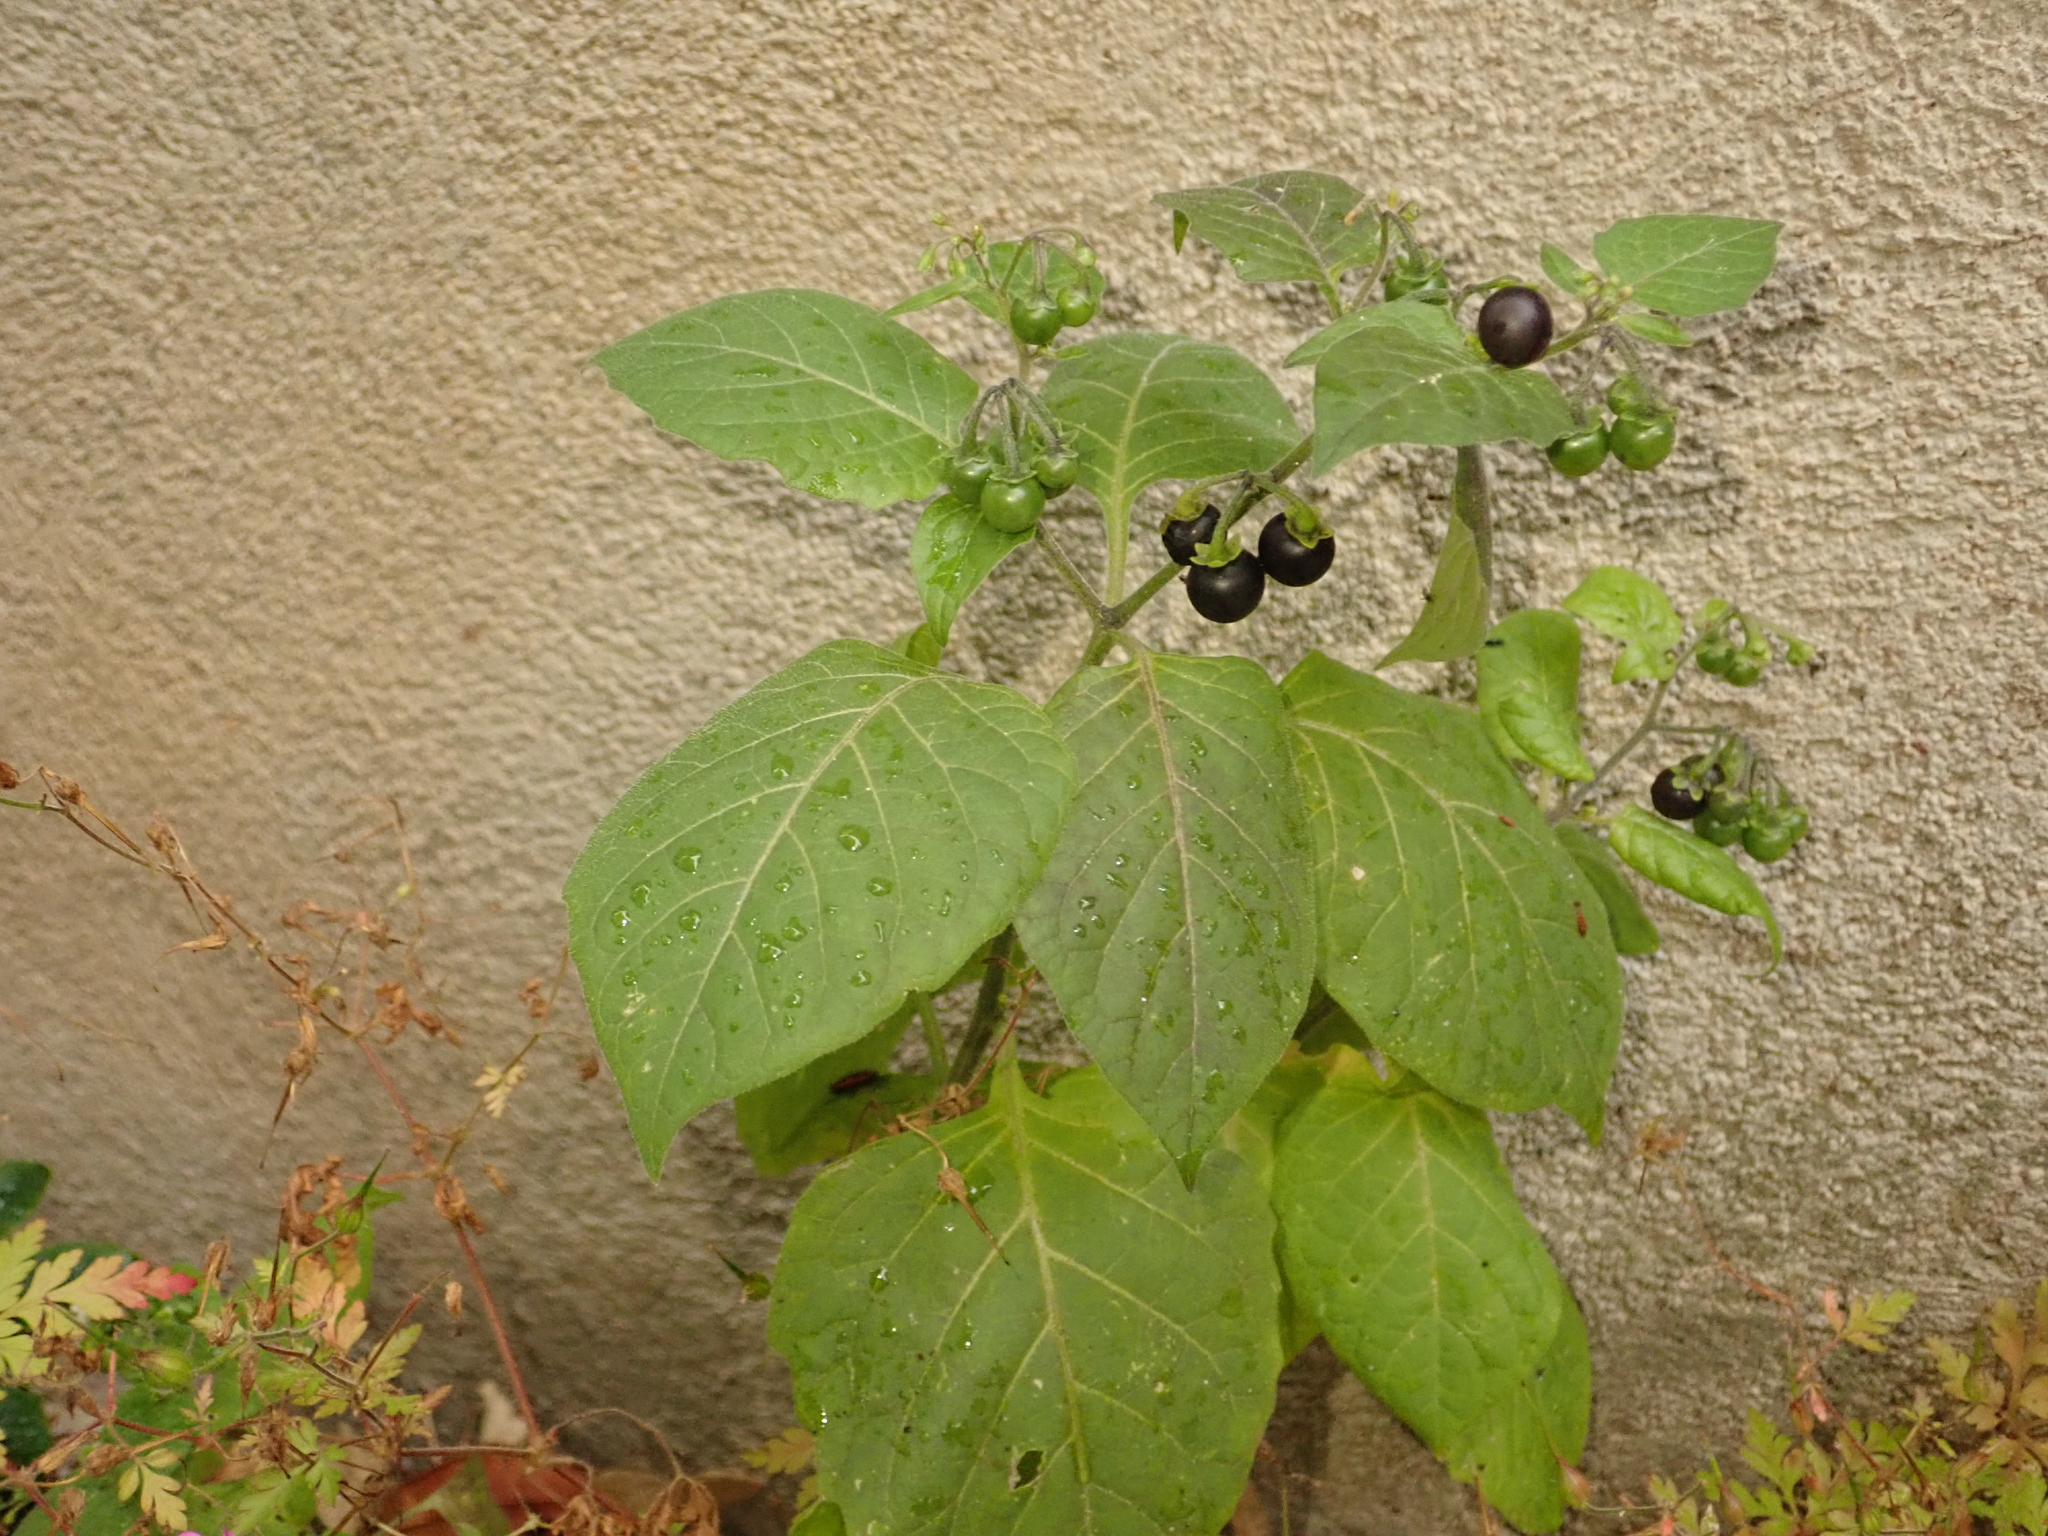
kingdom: Plantae
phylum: Tracheophyta
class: Magnoliopsida
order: Solanales
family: Solanaceae
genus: Solanum
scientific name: Solanum nigrum
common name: Black nightshade
